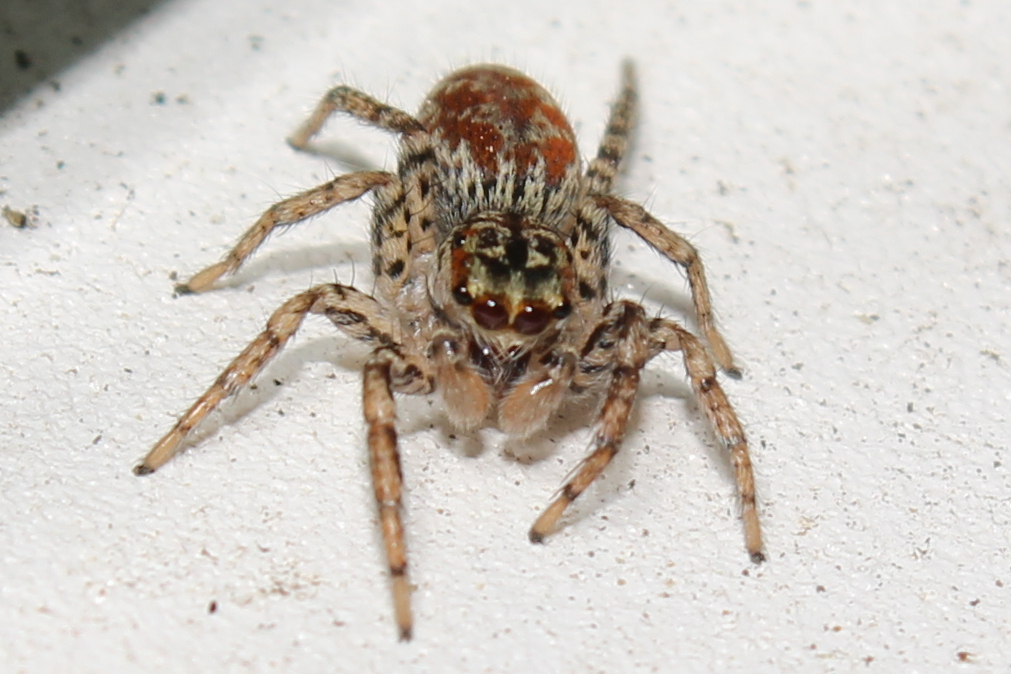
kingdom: Animalia
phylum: Arthropoda
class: Arachnida
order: Araneae
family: Salticidae
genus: Maevia
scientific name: Maevia inclemens
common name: Dimorphic jumper
